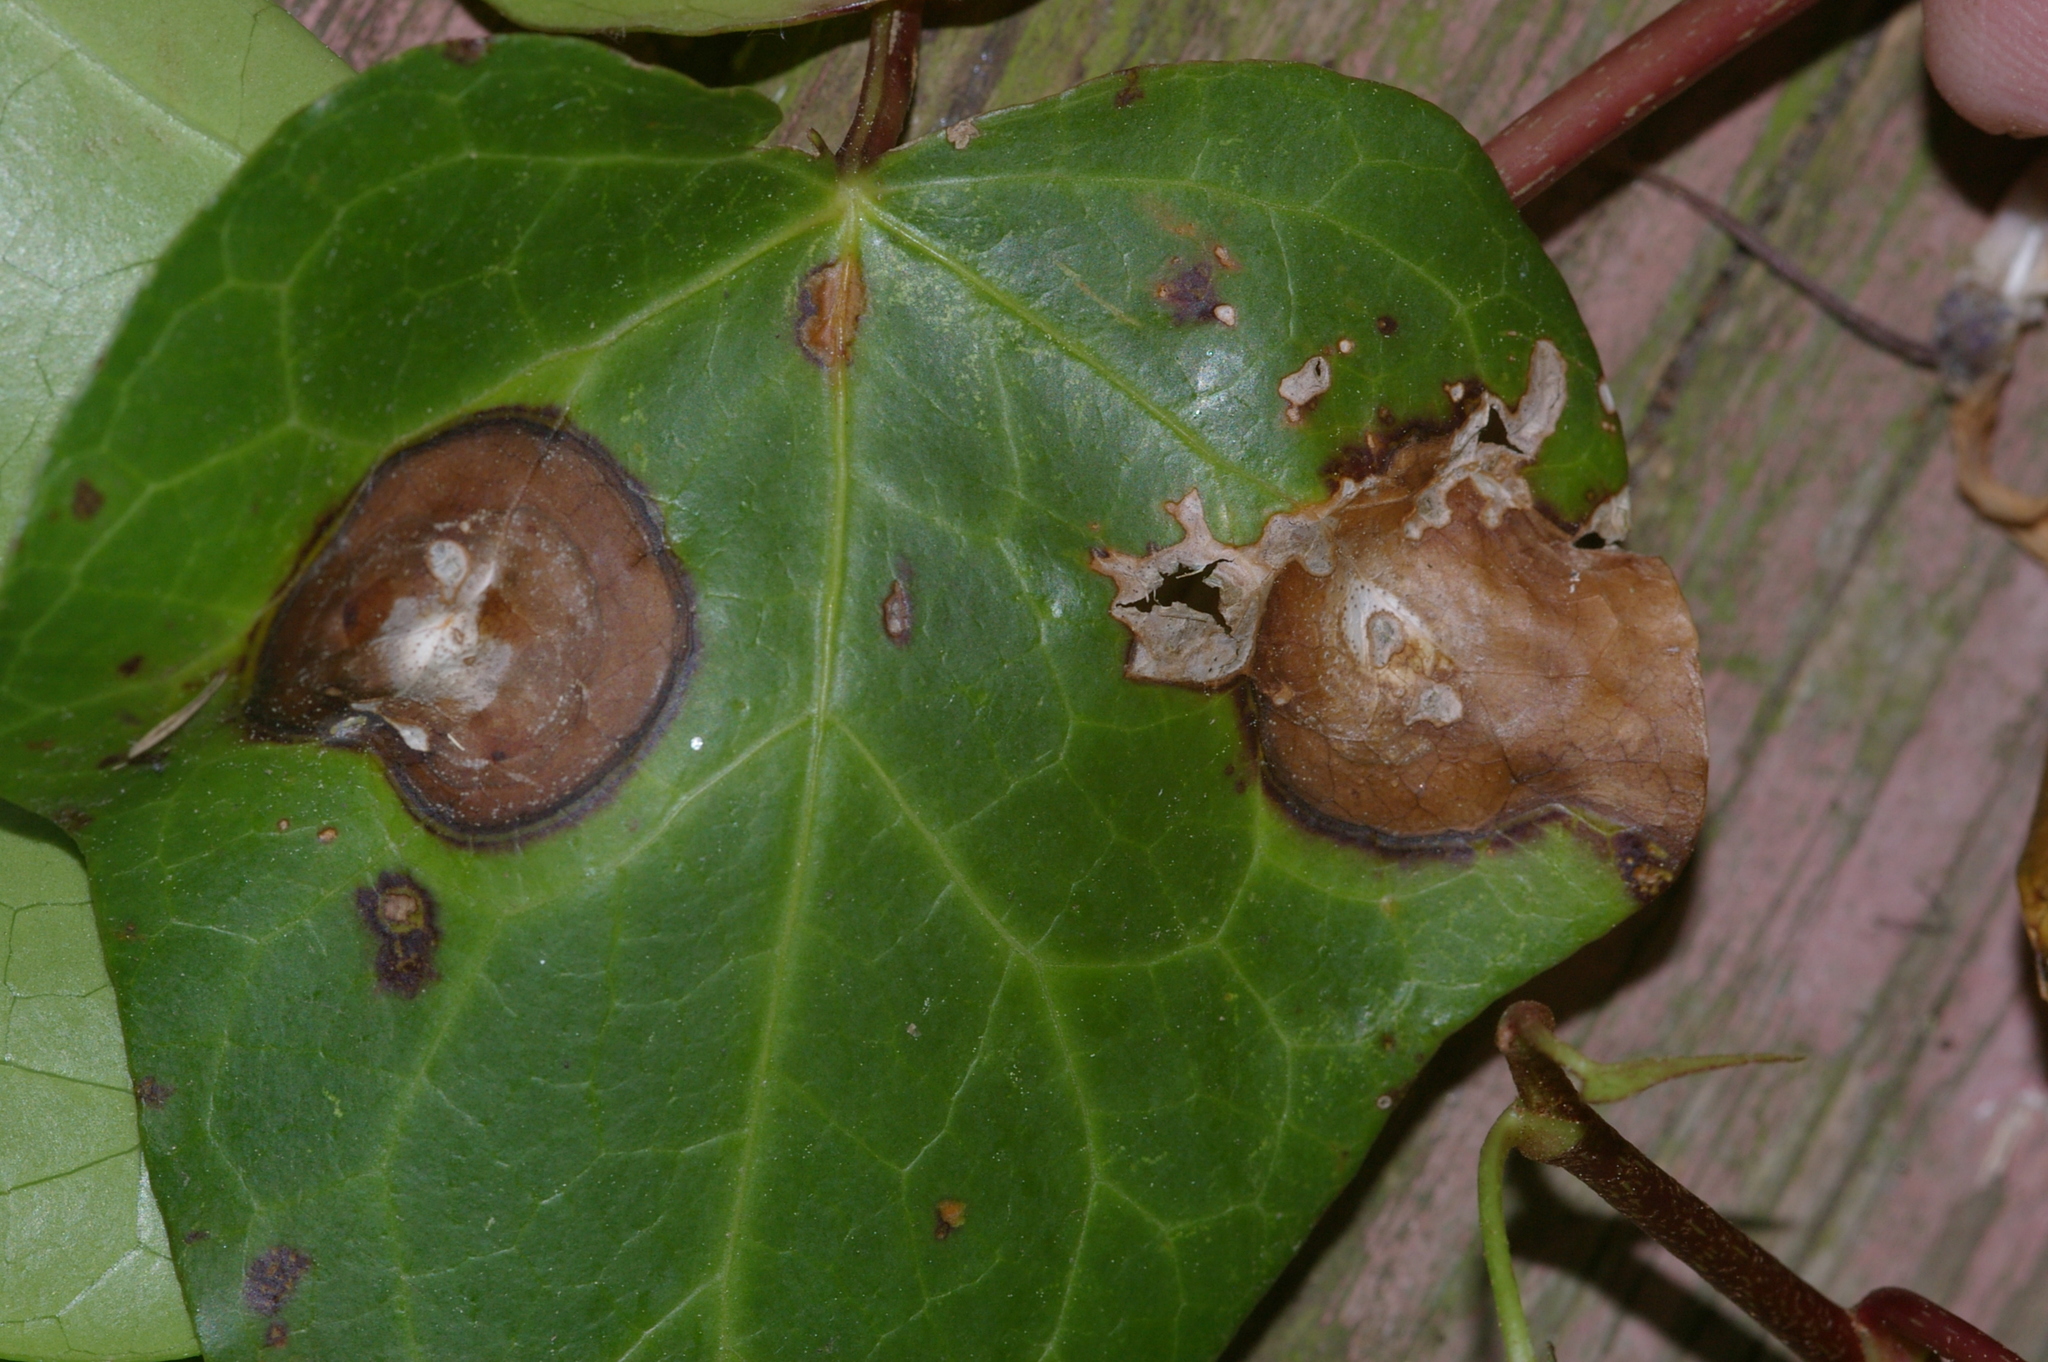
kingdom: Fungi
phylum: Ascomycota
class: Dothideomycetes
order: Pleosporales
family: Didymellaceae
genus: Boeremia
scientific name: Boeremia hedericola
